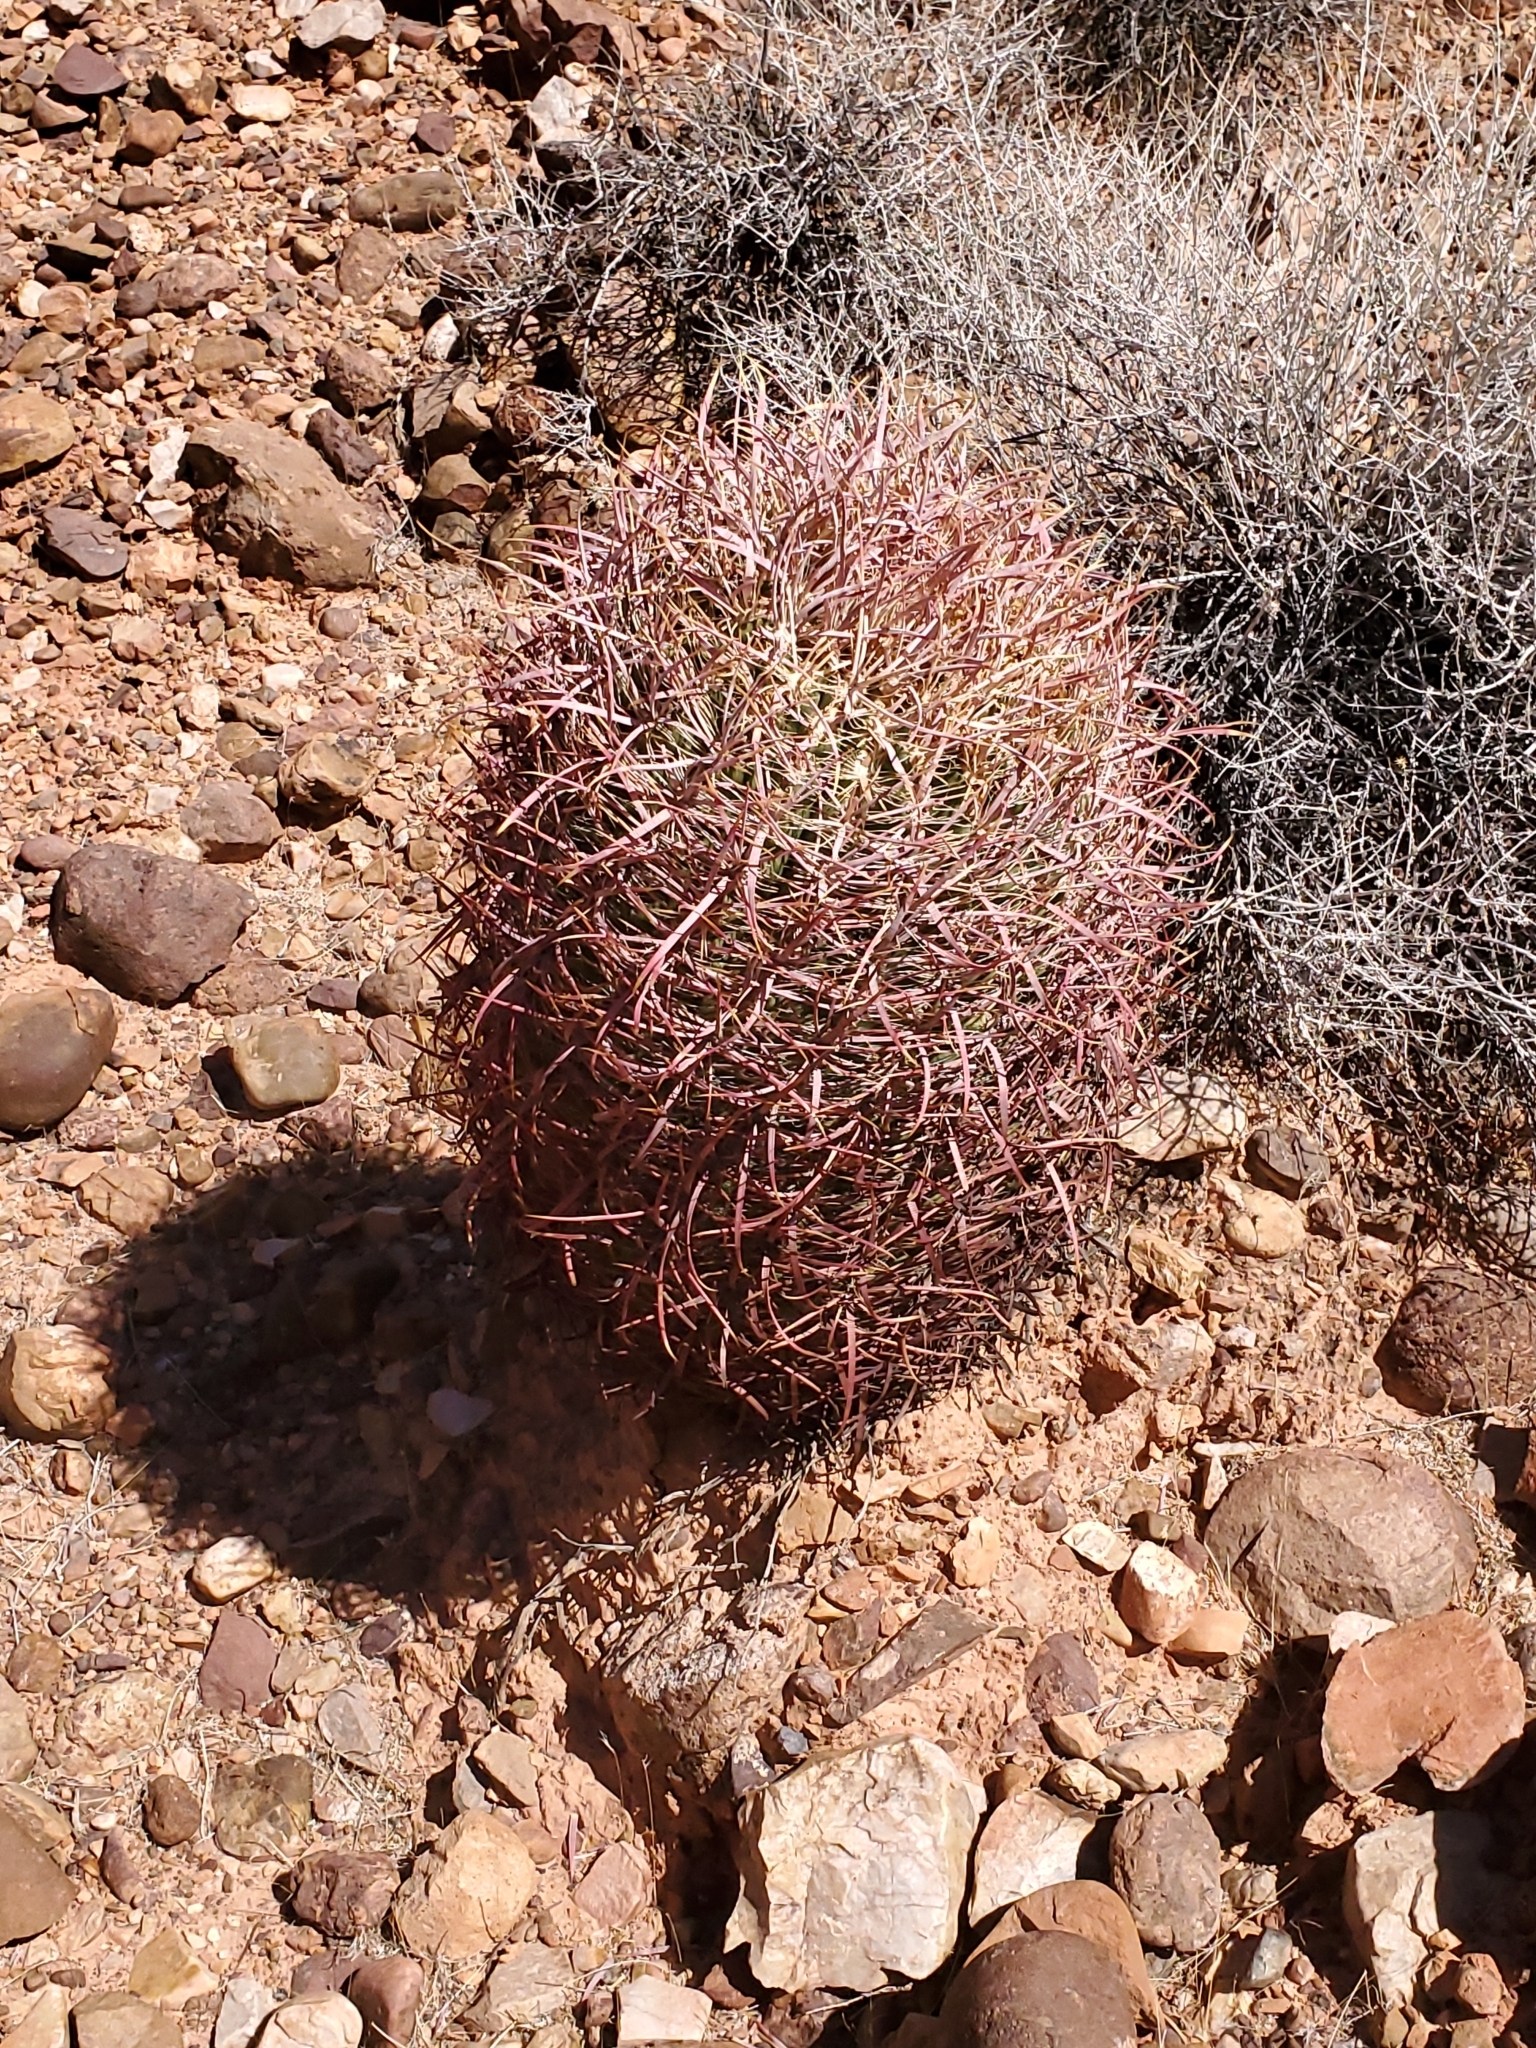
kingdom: Plantae
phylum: Tracheophyta
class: Magnoliopsida
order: Caryophyllales
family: Cactaceae
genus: Ferocactus
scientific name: Ferocactus cylindraceus
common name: California barrel cactus
